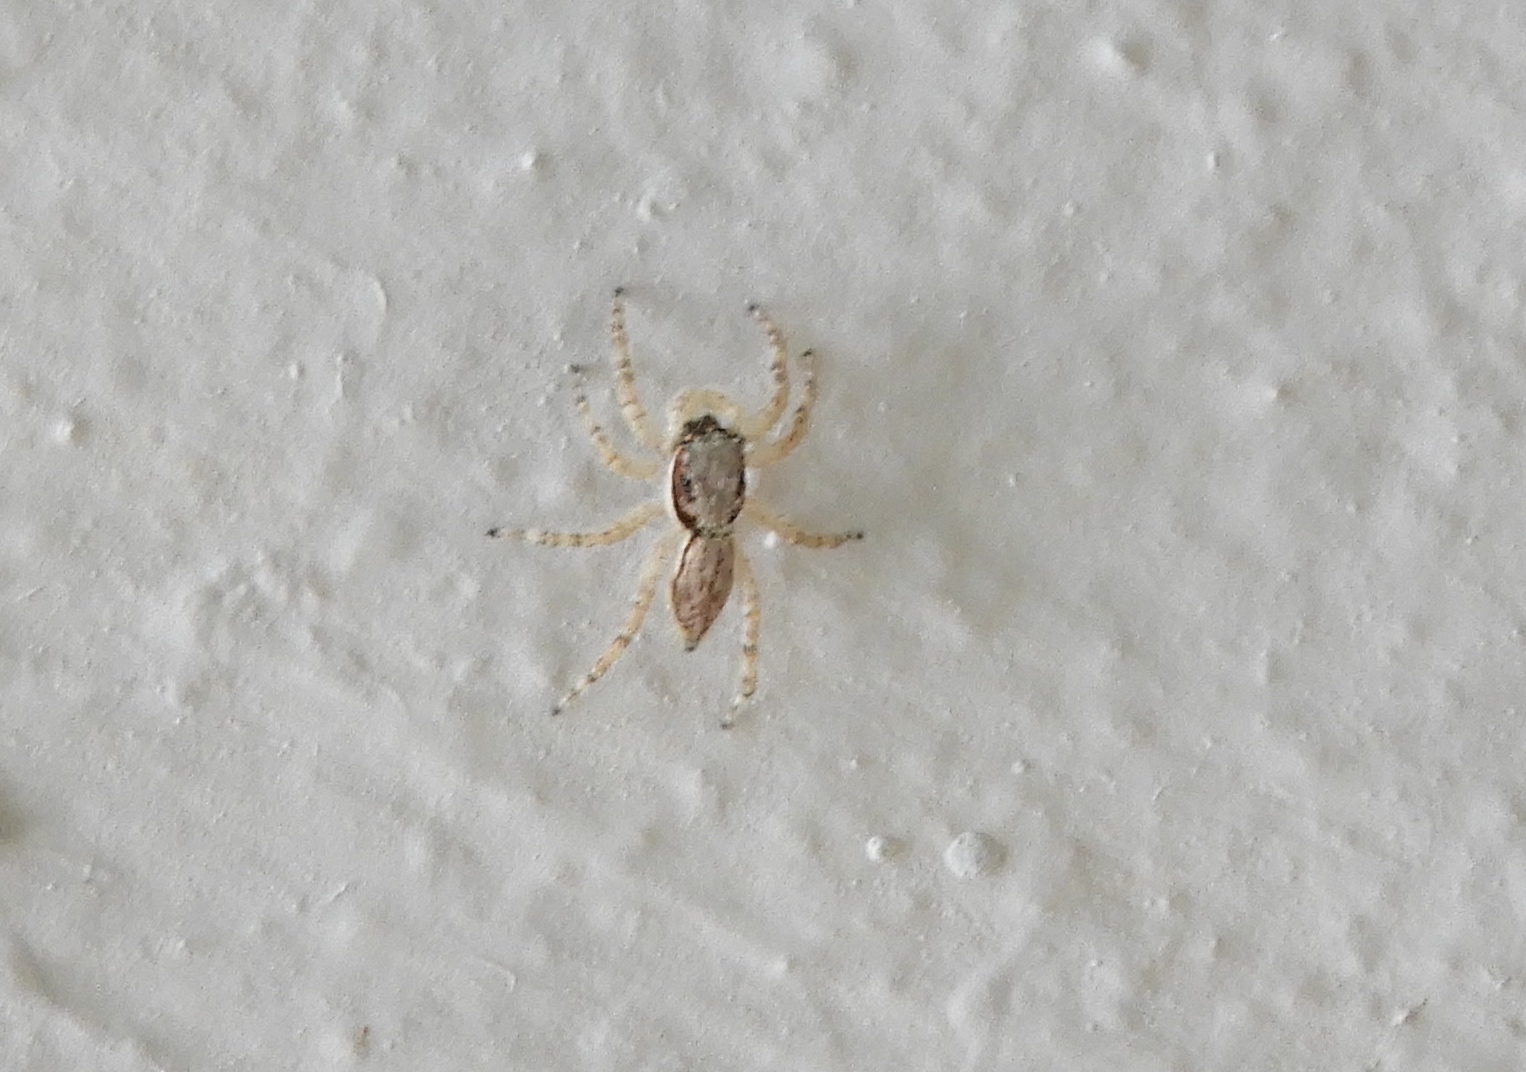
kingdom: Animalia
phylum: Arthropoda
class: Arachnida
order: Araneae
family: Salticidae
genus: Menemerus
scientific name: Menemerus bivittatus
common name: Gray wall jumper
